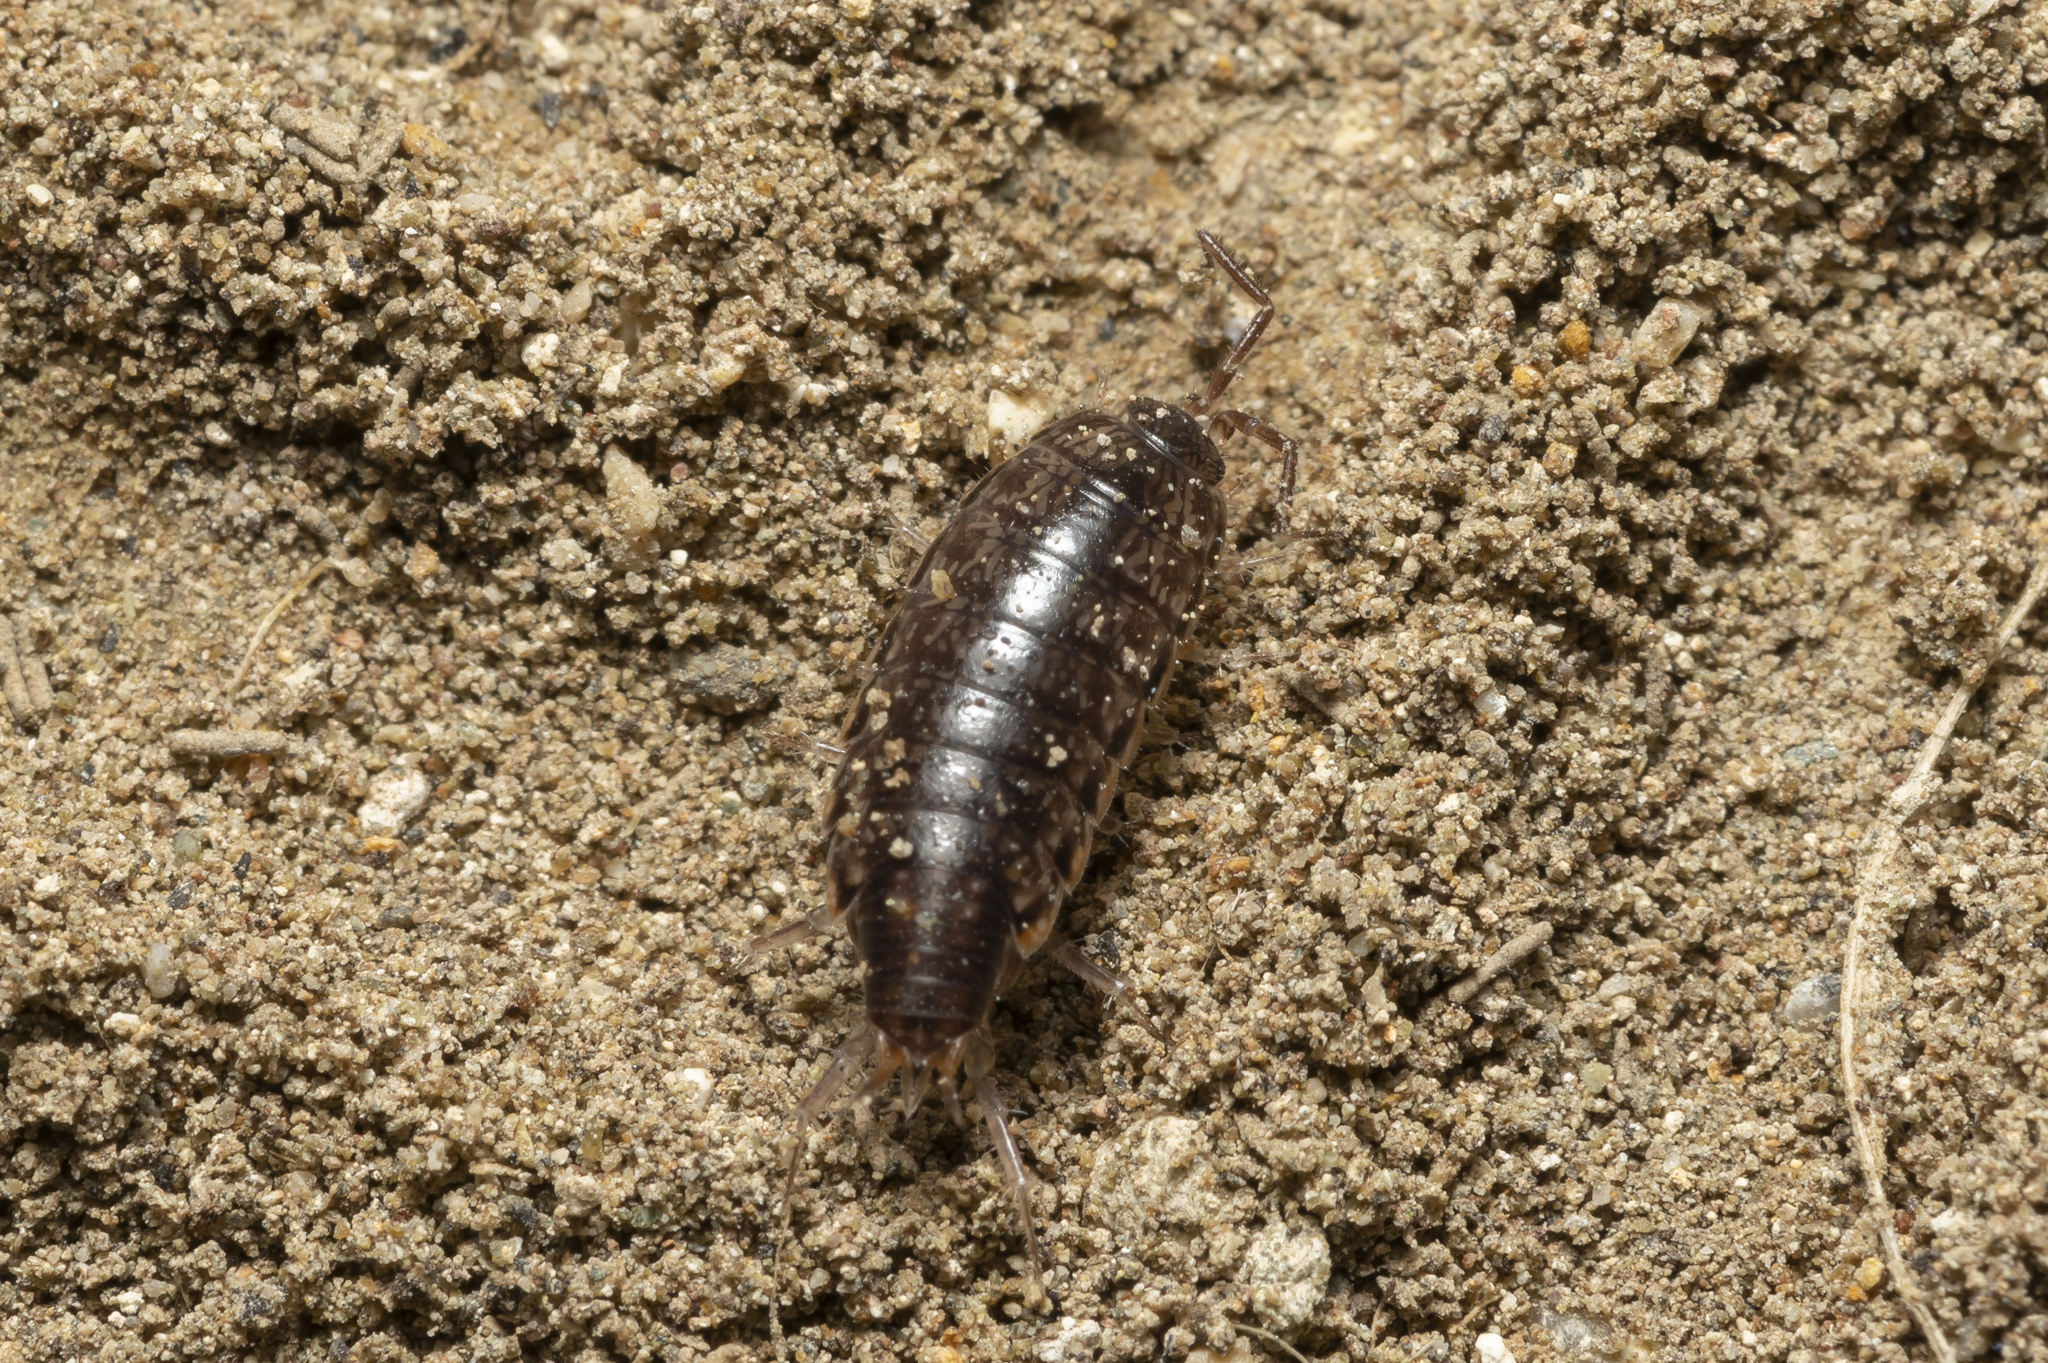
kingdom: Animalia
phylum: Arthropoda
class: Malacostraca
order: Isopoda
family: Philosciidae
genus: Chaetophiloscia
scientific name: Chaetophiloscia elongata
